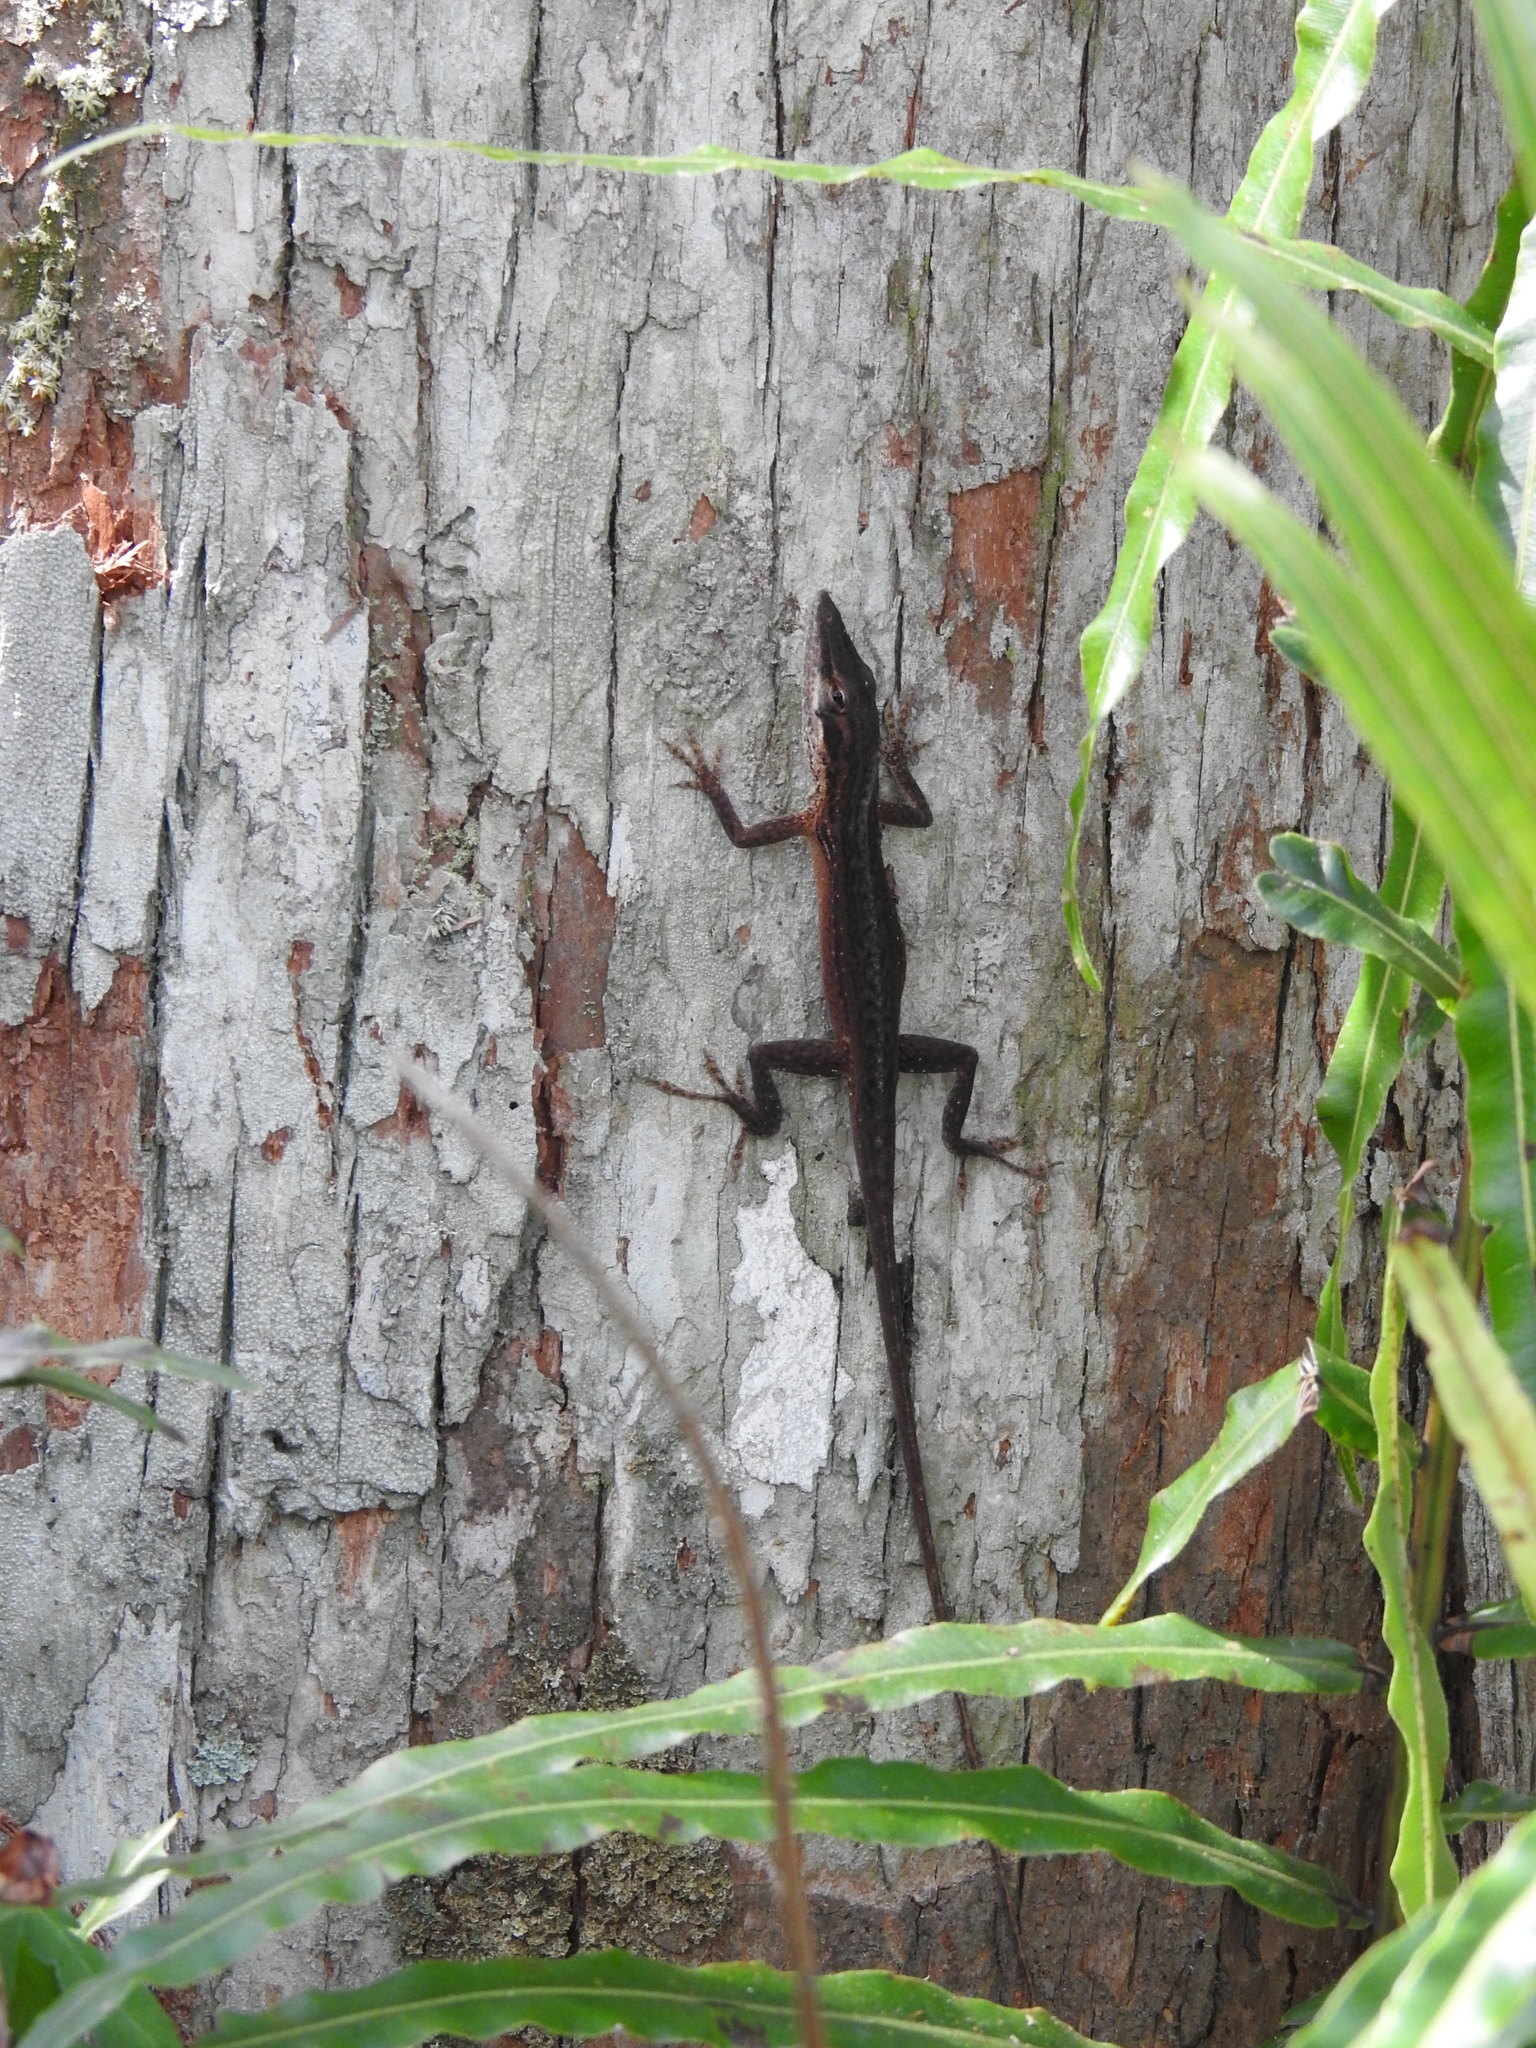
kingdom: Animalia
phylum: Chordata
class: Squamata
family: Dactyloidae
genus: Anolis
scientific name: Anolis carolinensis
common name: Green anole
